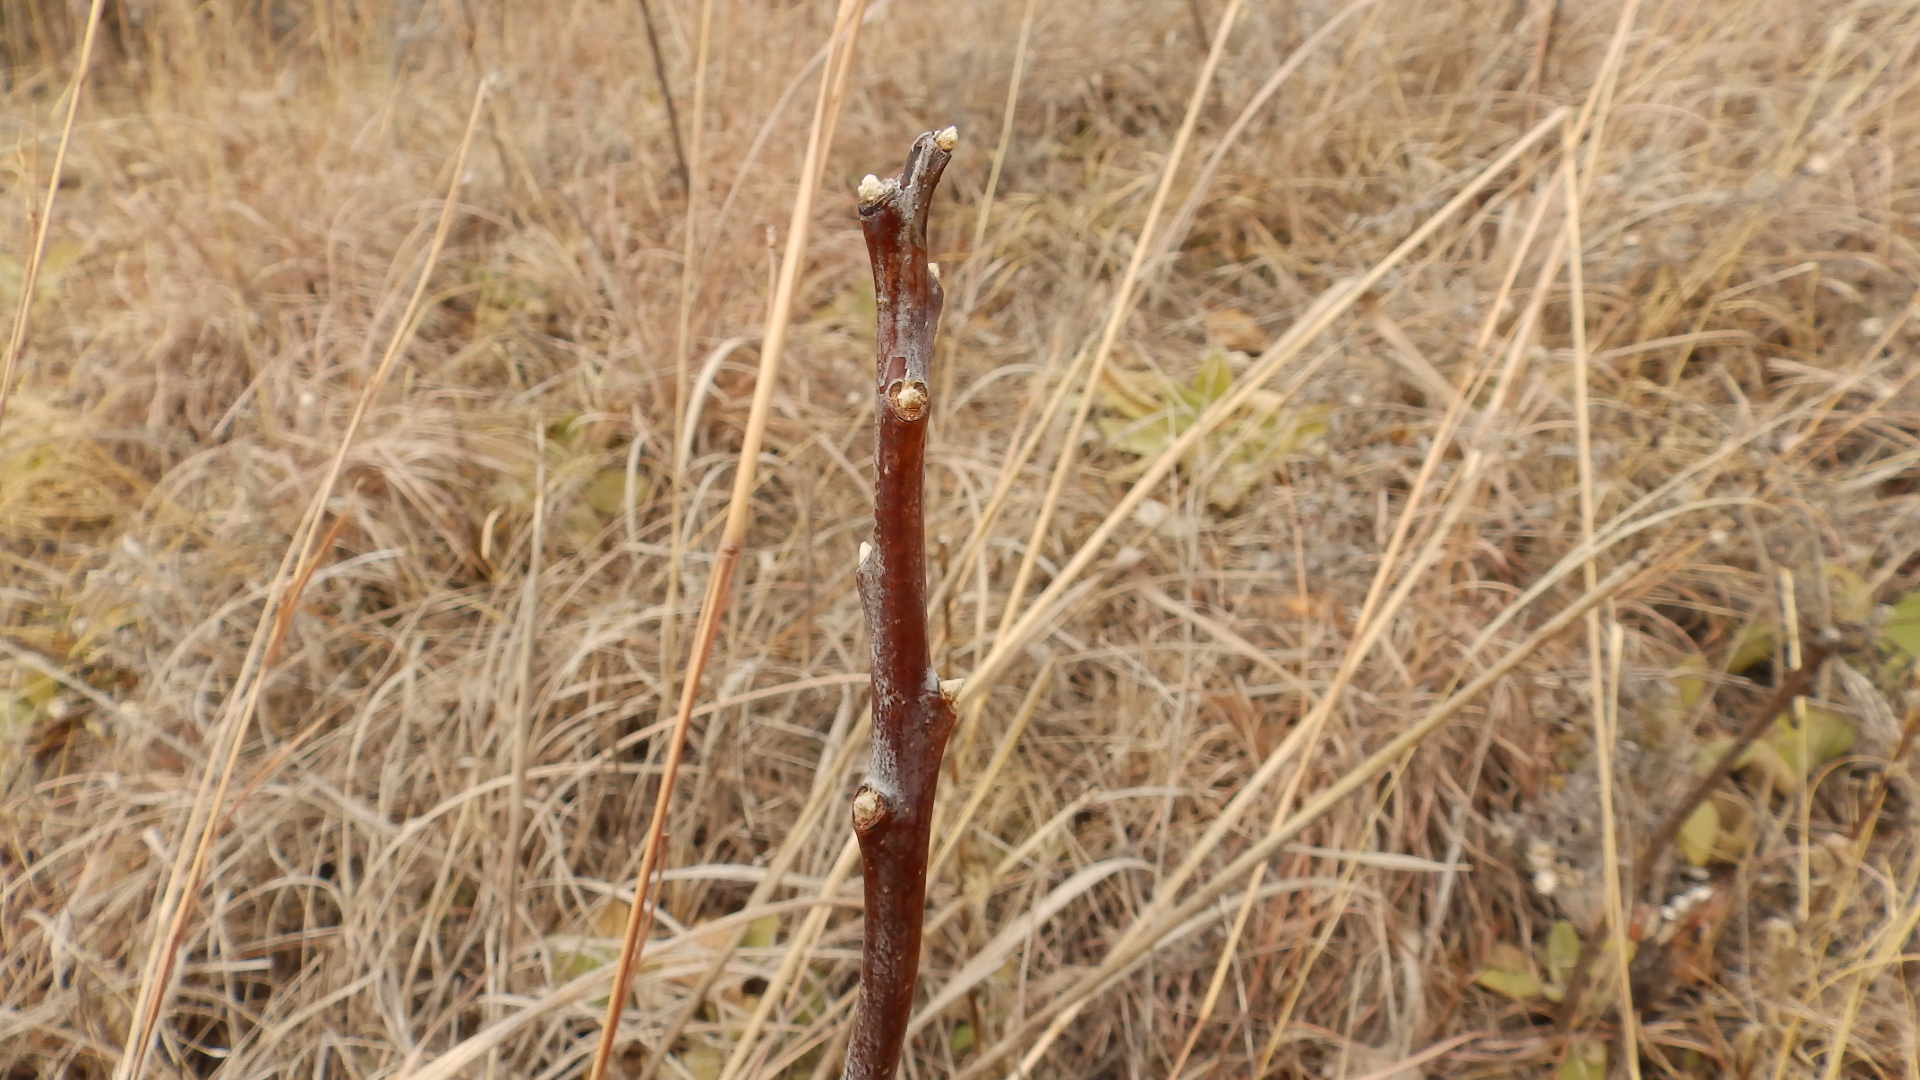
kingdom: Plantae
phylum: Tracheophyta
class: Magnoliopsida
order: Sapindales
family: Anacardiaceae
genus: Rhus
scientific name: Rhus glabra
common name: Scarlet sumac
